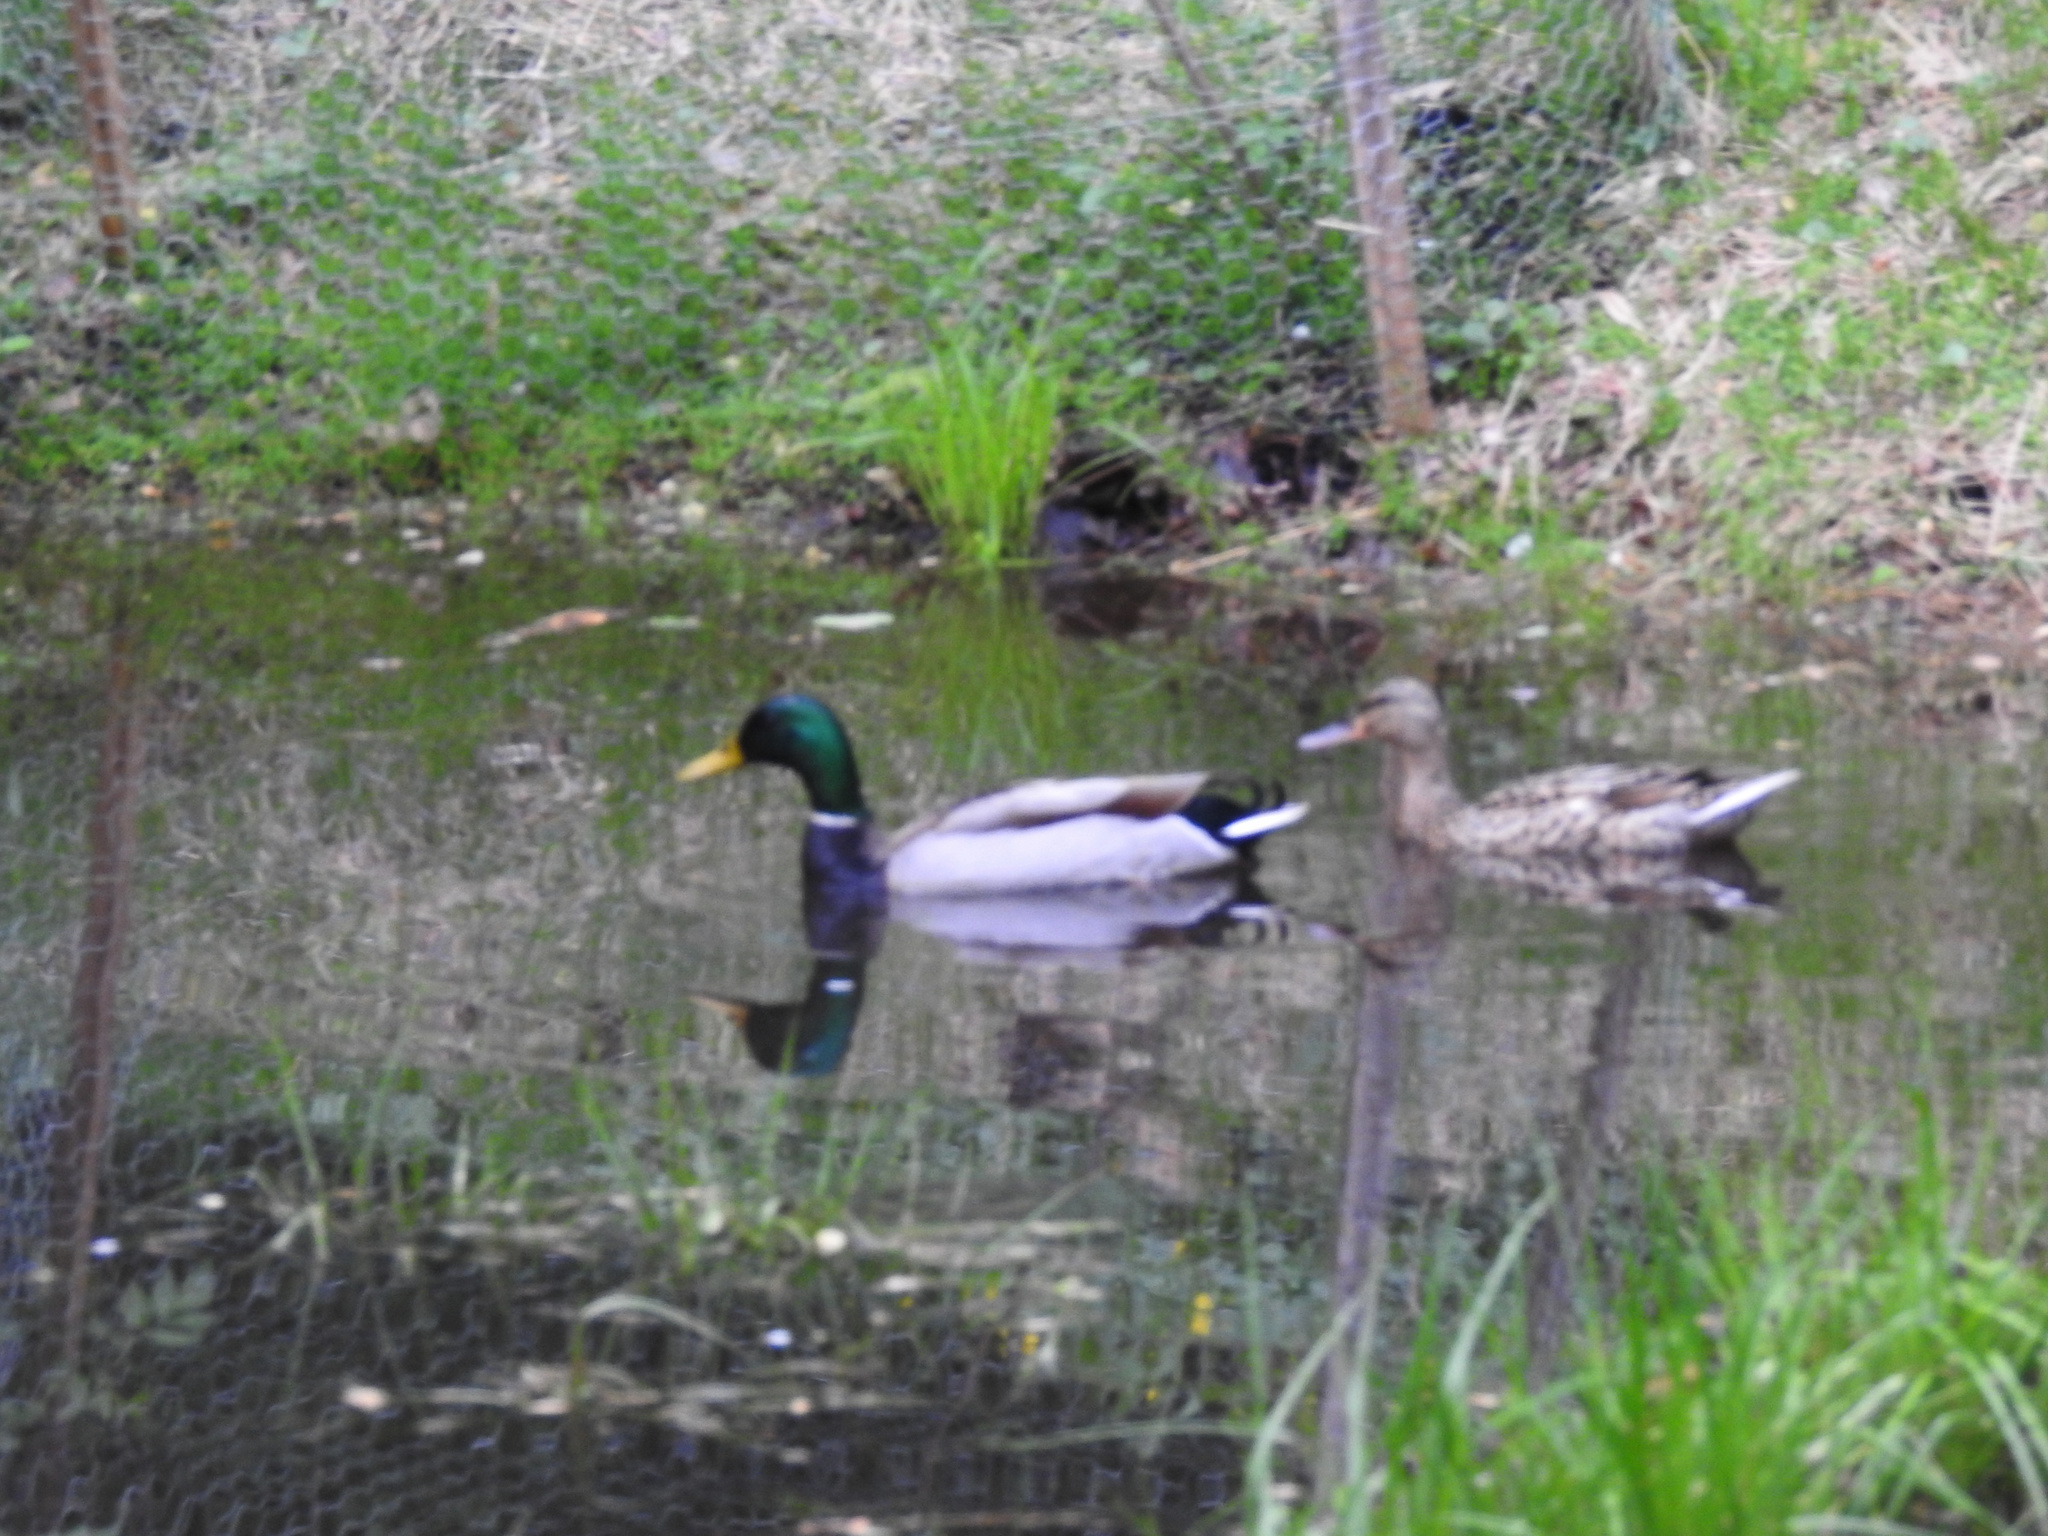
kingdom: Animalia
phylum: Chordata
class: Aves
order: Anseriformes
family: Anatidae
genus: Anas
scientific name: Anas platyrhynchos
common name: Mallard
